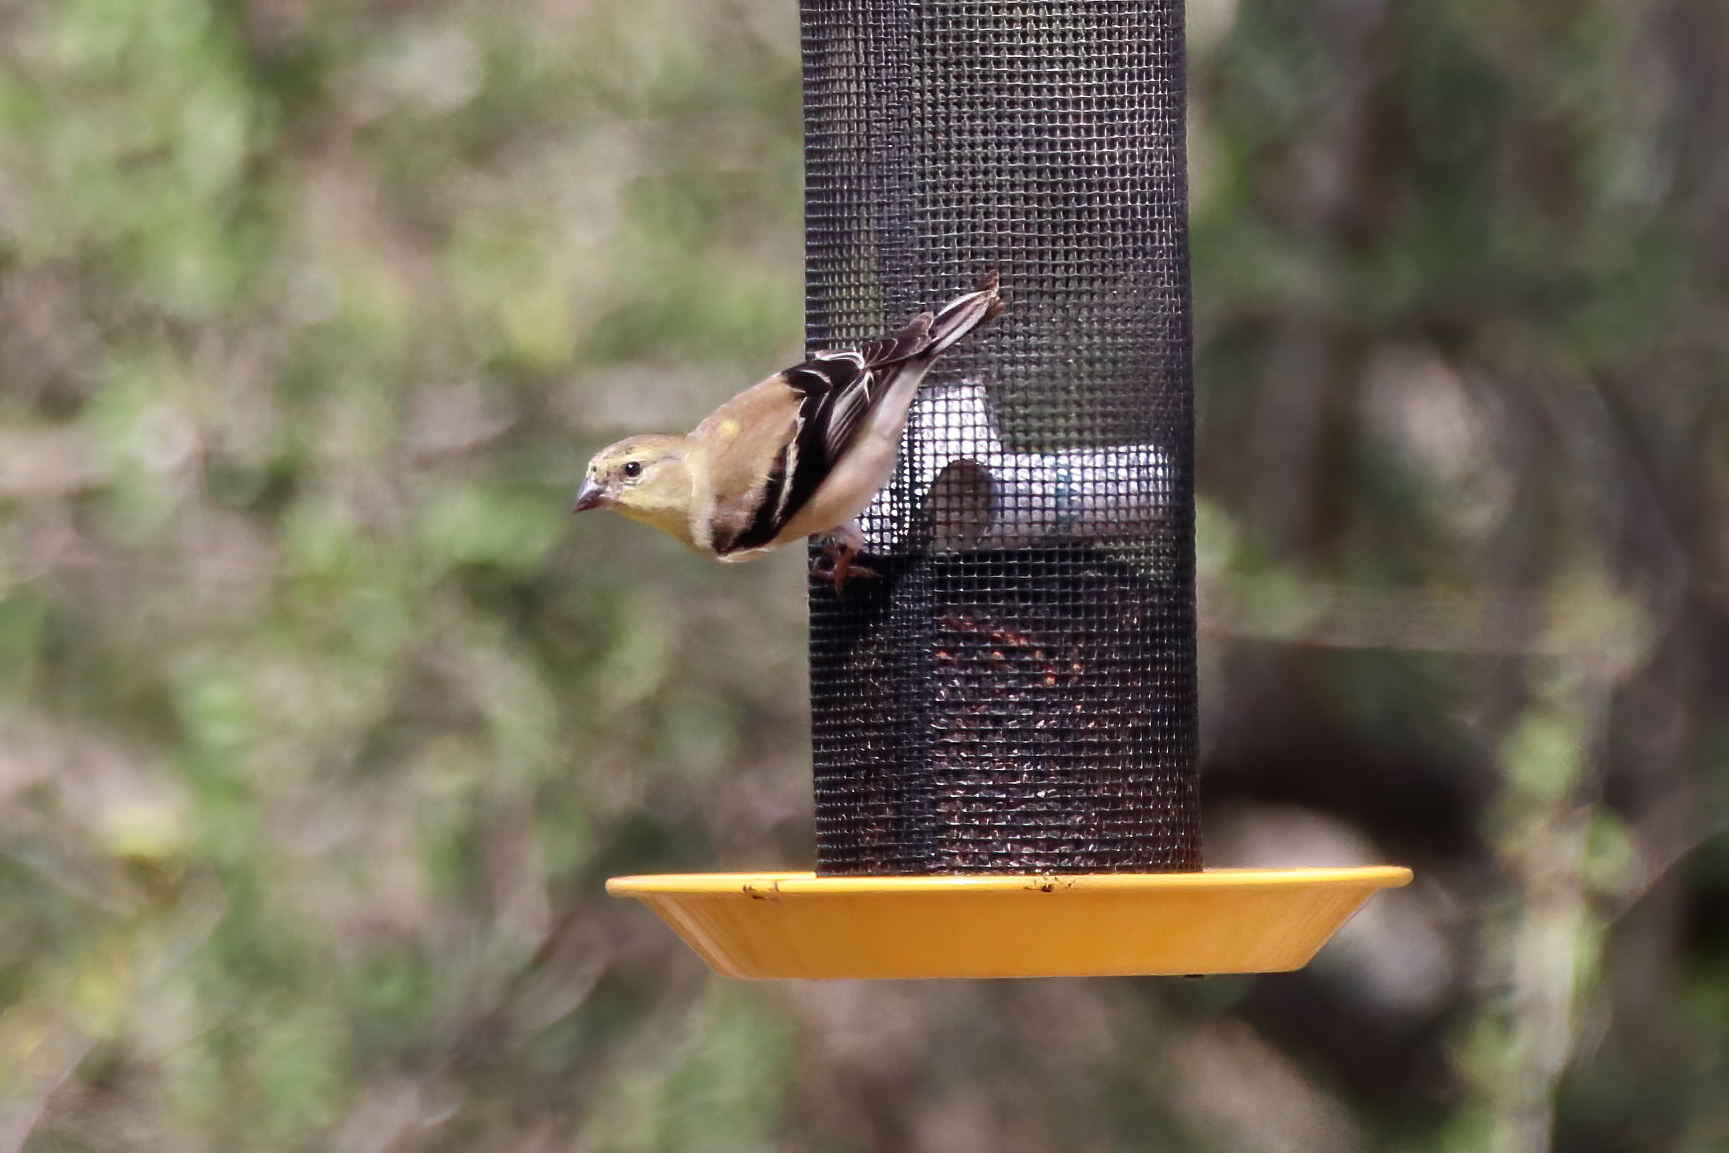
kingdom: Animalia
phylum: Chordata
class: Aves
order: Passeriformes
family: Fringillidae
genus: Spinus
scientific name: Spinus tristis
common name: American goldfinch
